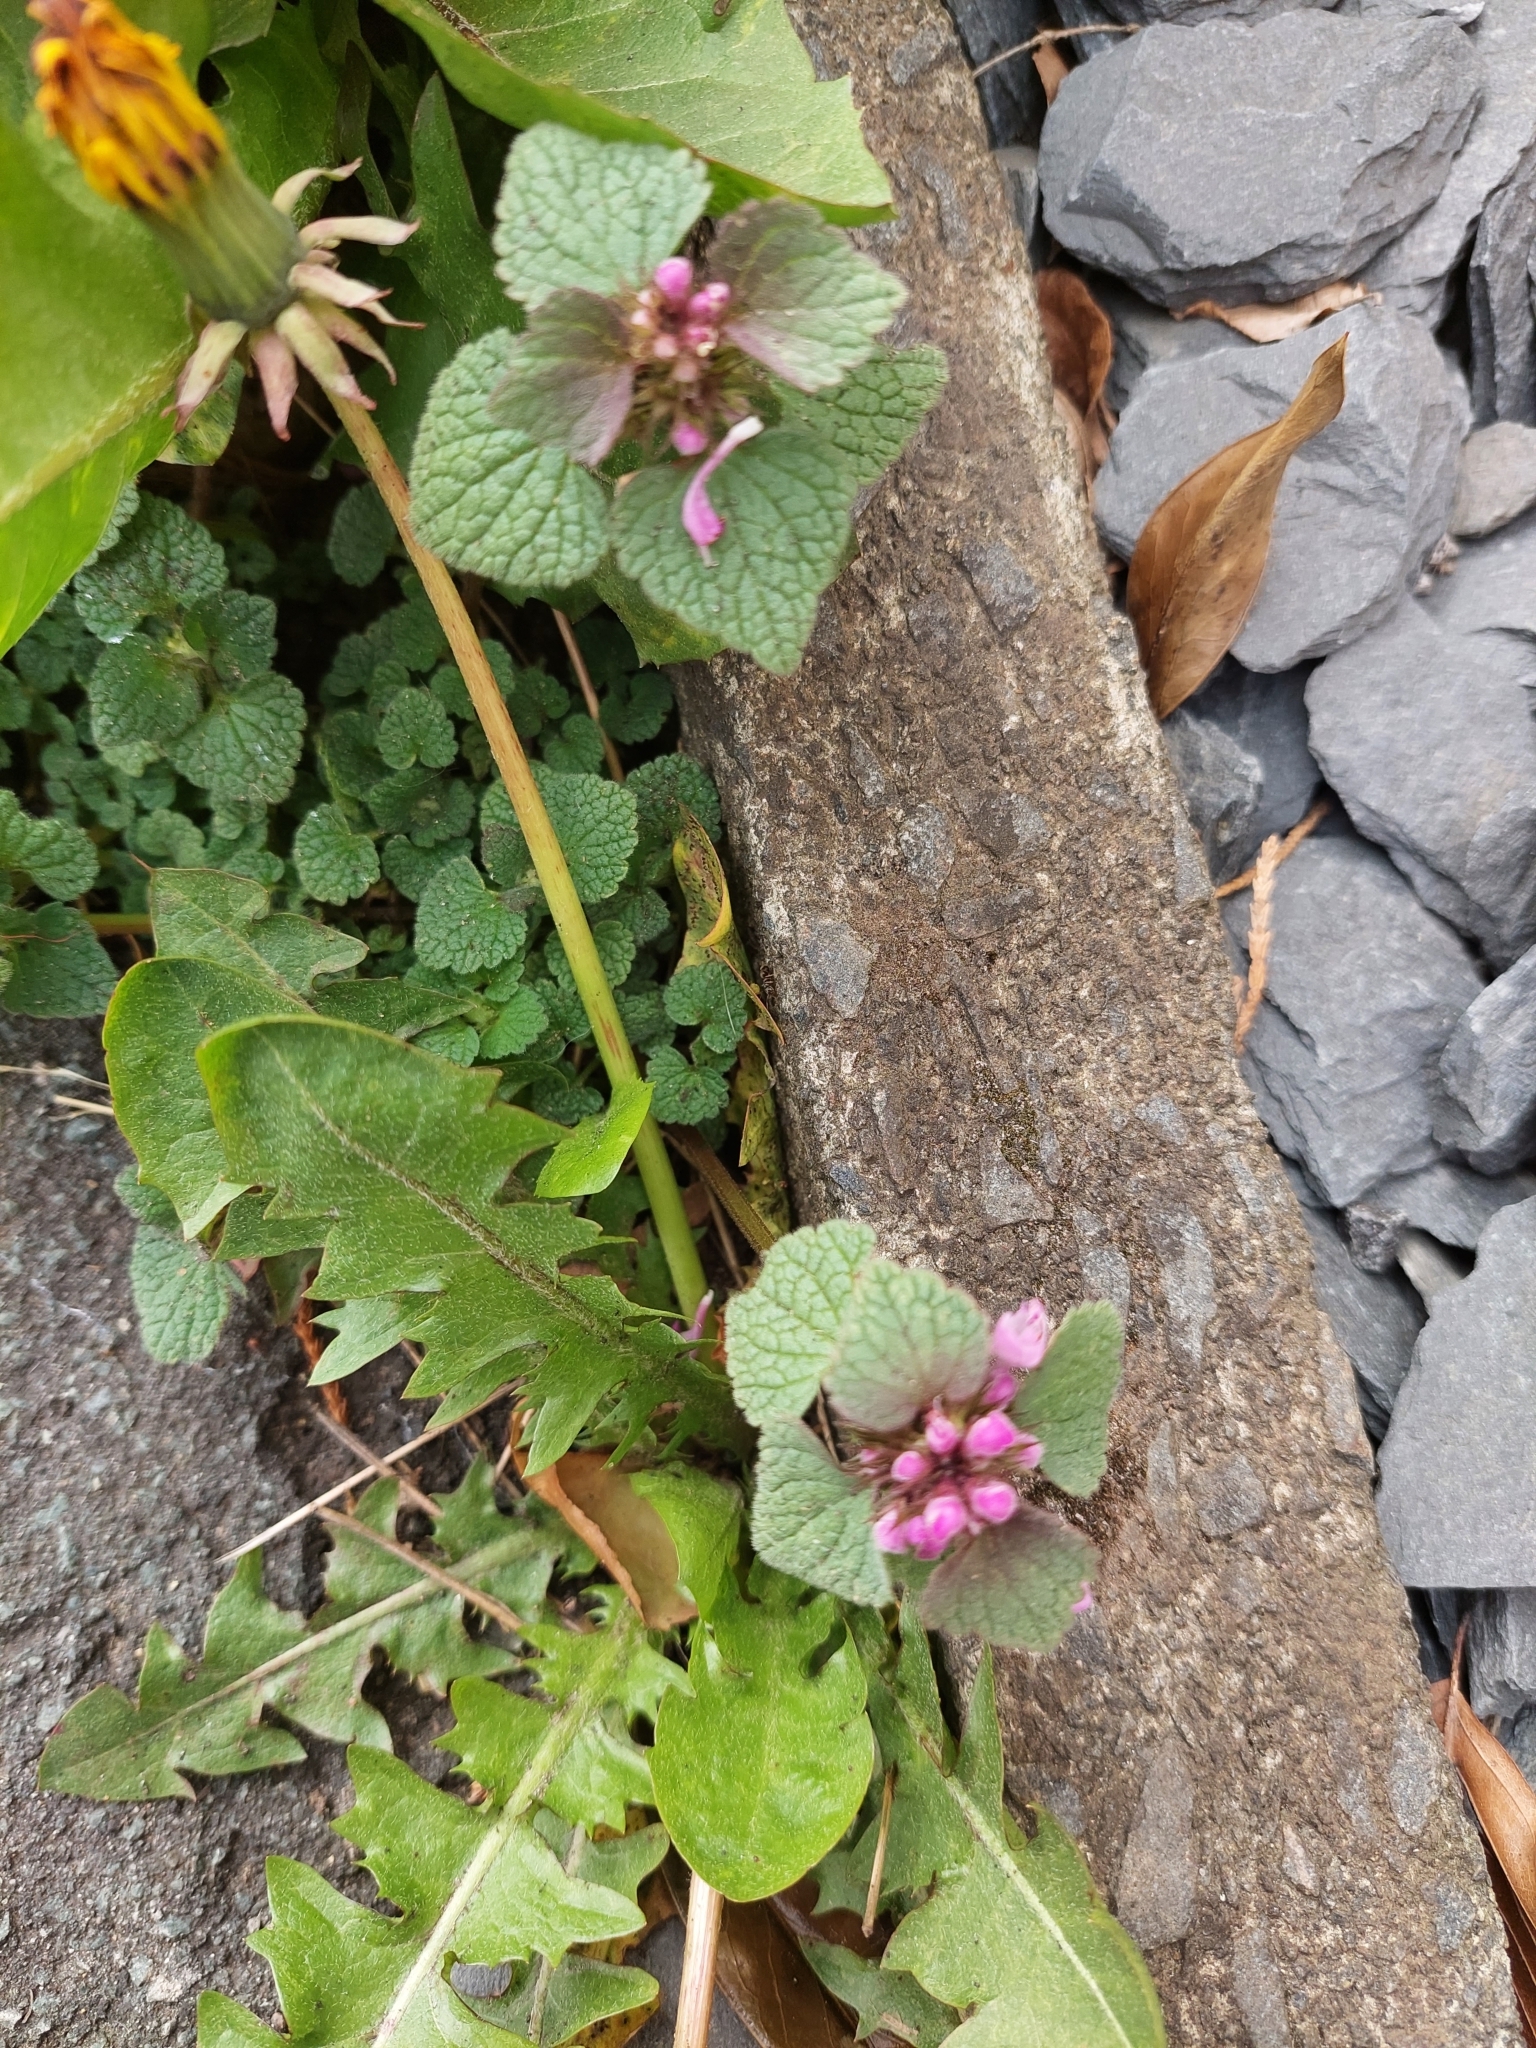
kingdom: Plantae
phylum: Tracheophyta
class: Magnoliopsida
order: Lamiales
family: Lamiaceae
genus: Lamium
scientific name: Lamium purpureum
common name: Red dead-nettle
